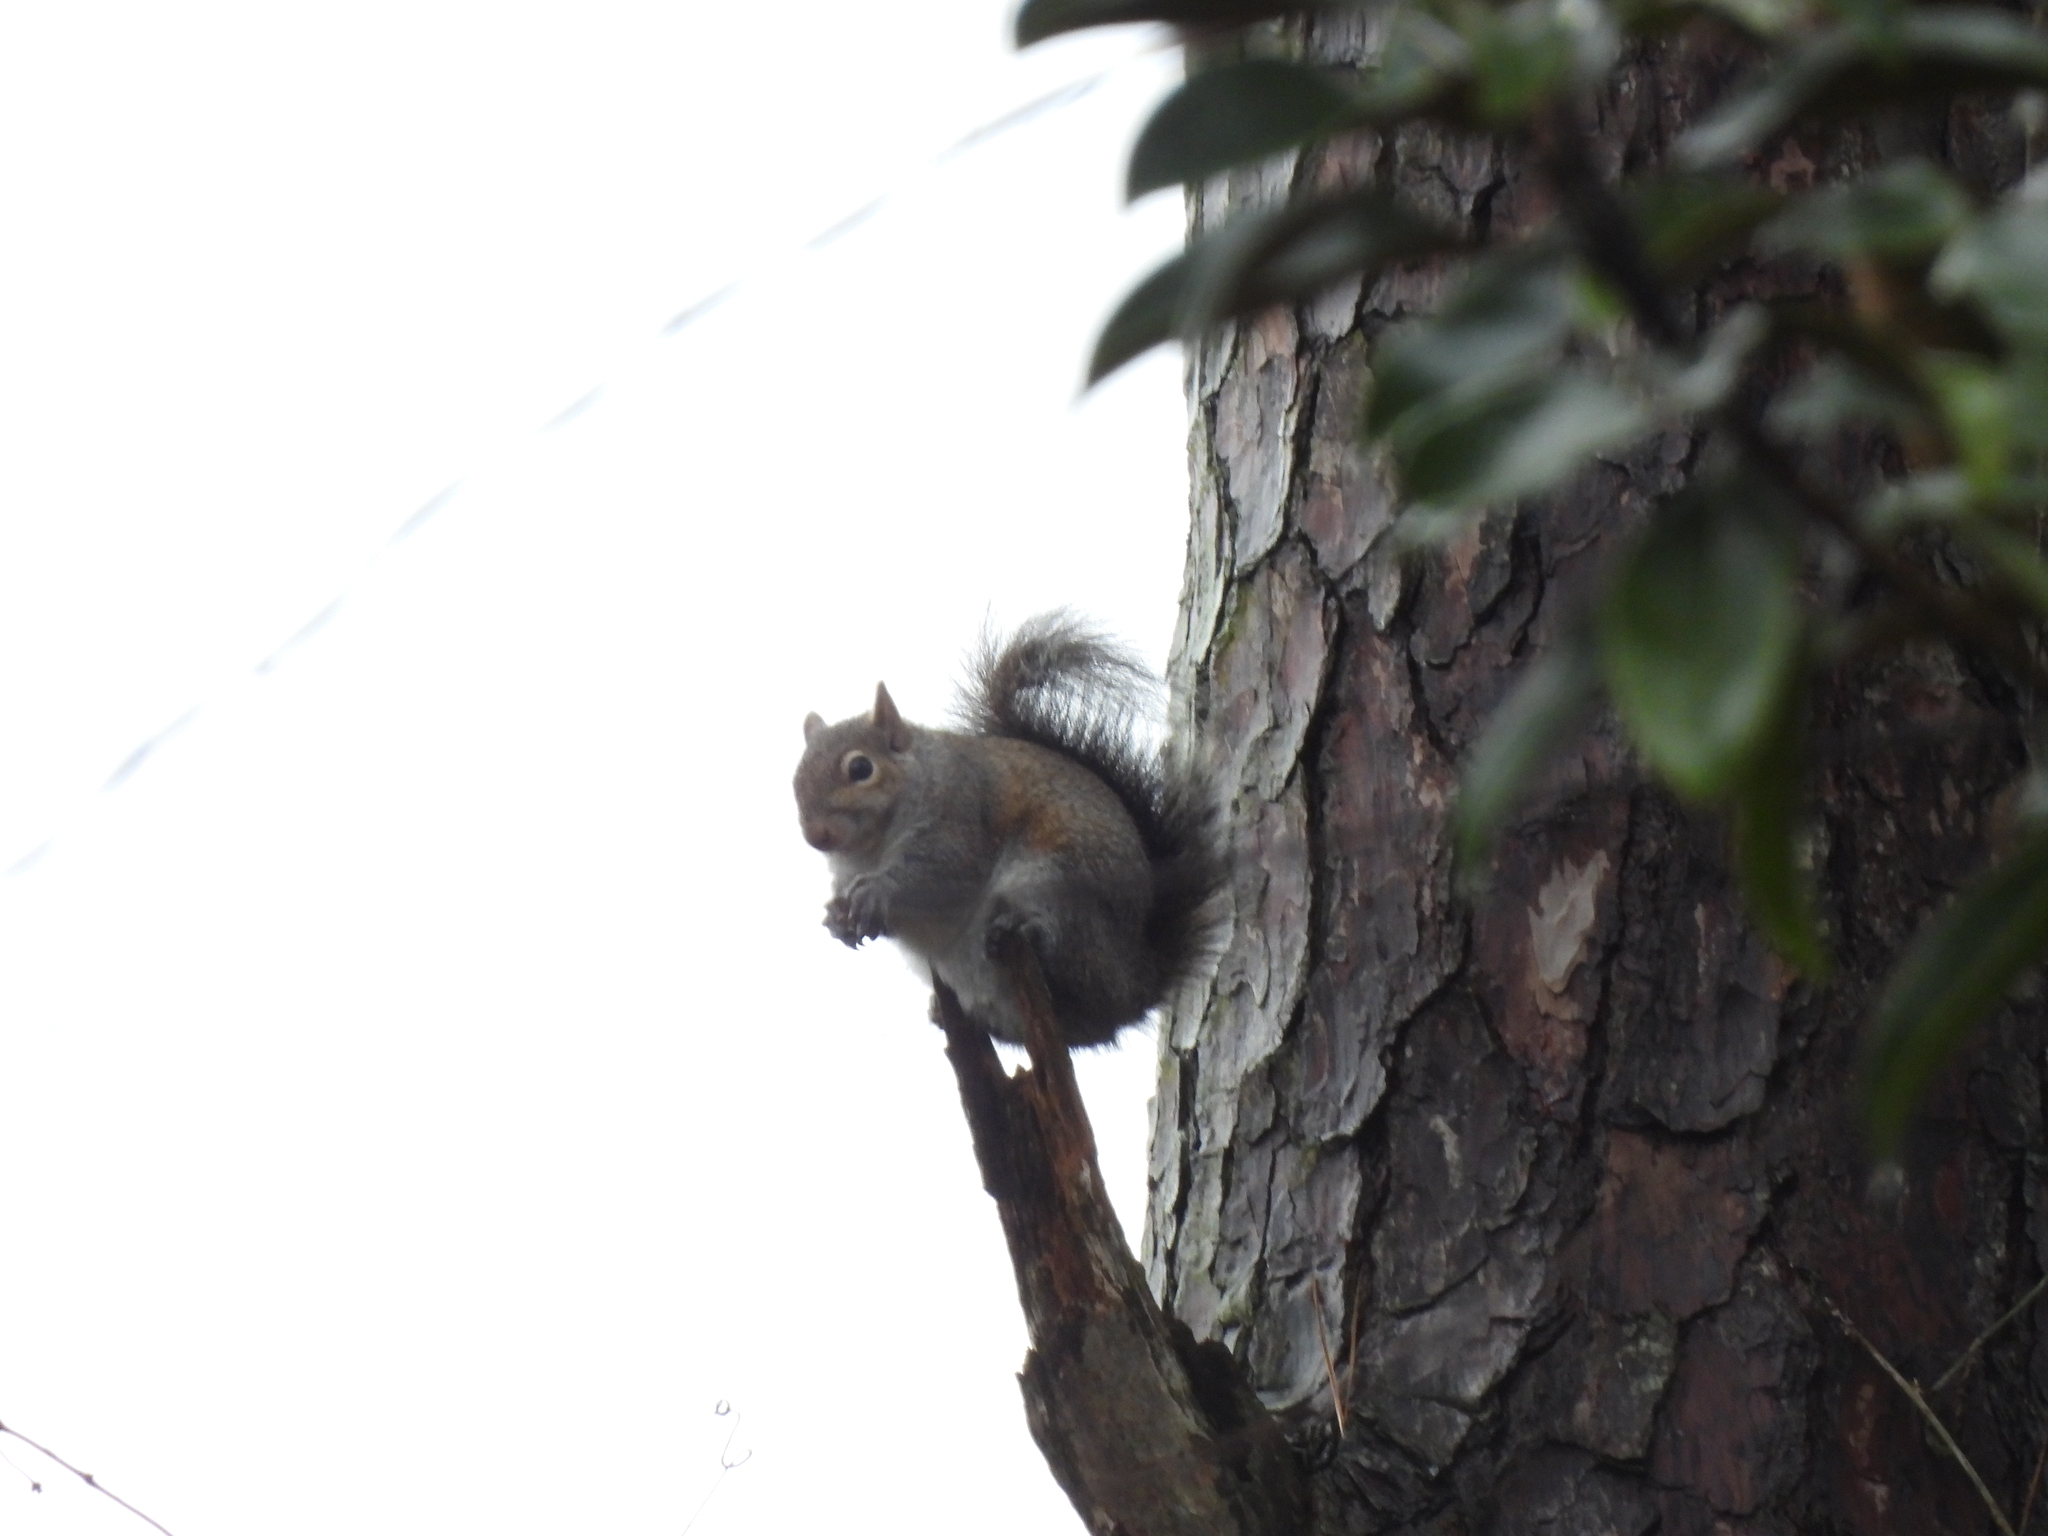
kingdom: Animalia
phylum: Chordata
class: Mammalia
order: Rodentia
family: Sciuridae
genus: Sciurus
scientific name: Sciurus carolinensis
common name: Eastern gray squirrel
